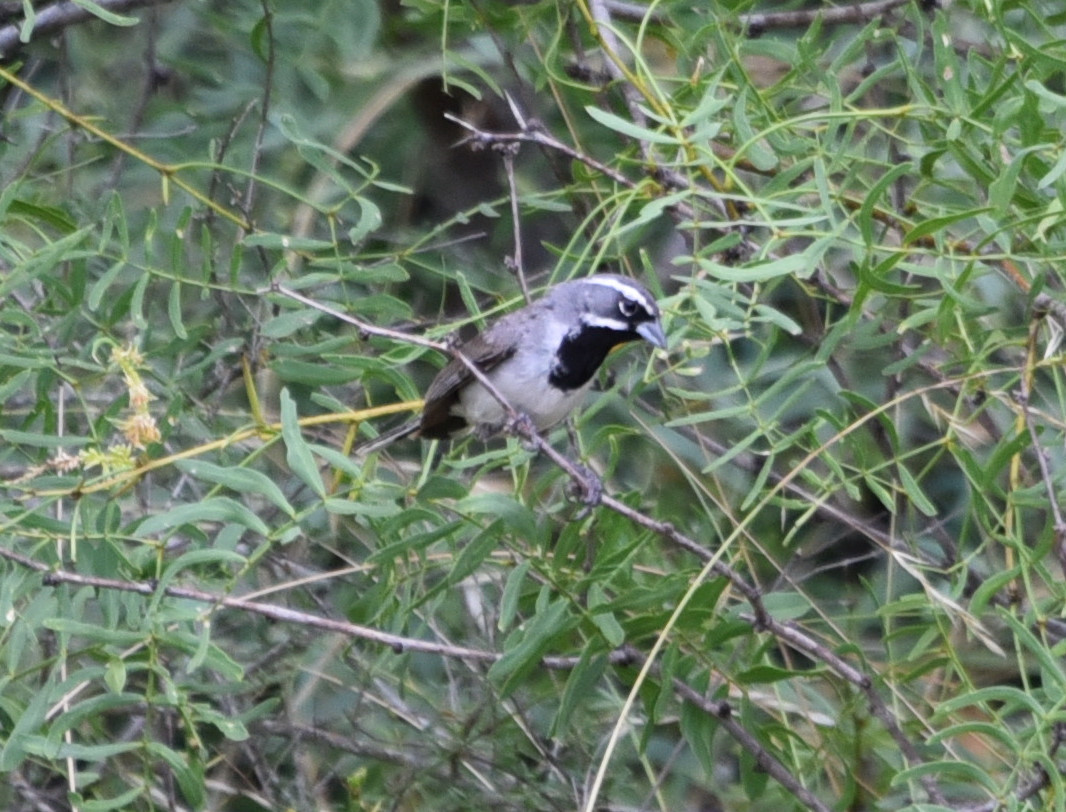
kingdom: Animalia
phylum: Chordata
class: Aves
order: Passeriformes
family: Passerellidae
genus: Amphispiza
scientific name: Amphispiza bilineata
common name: Black-throated sparrow
